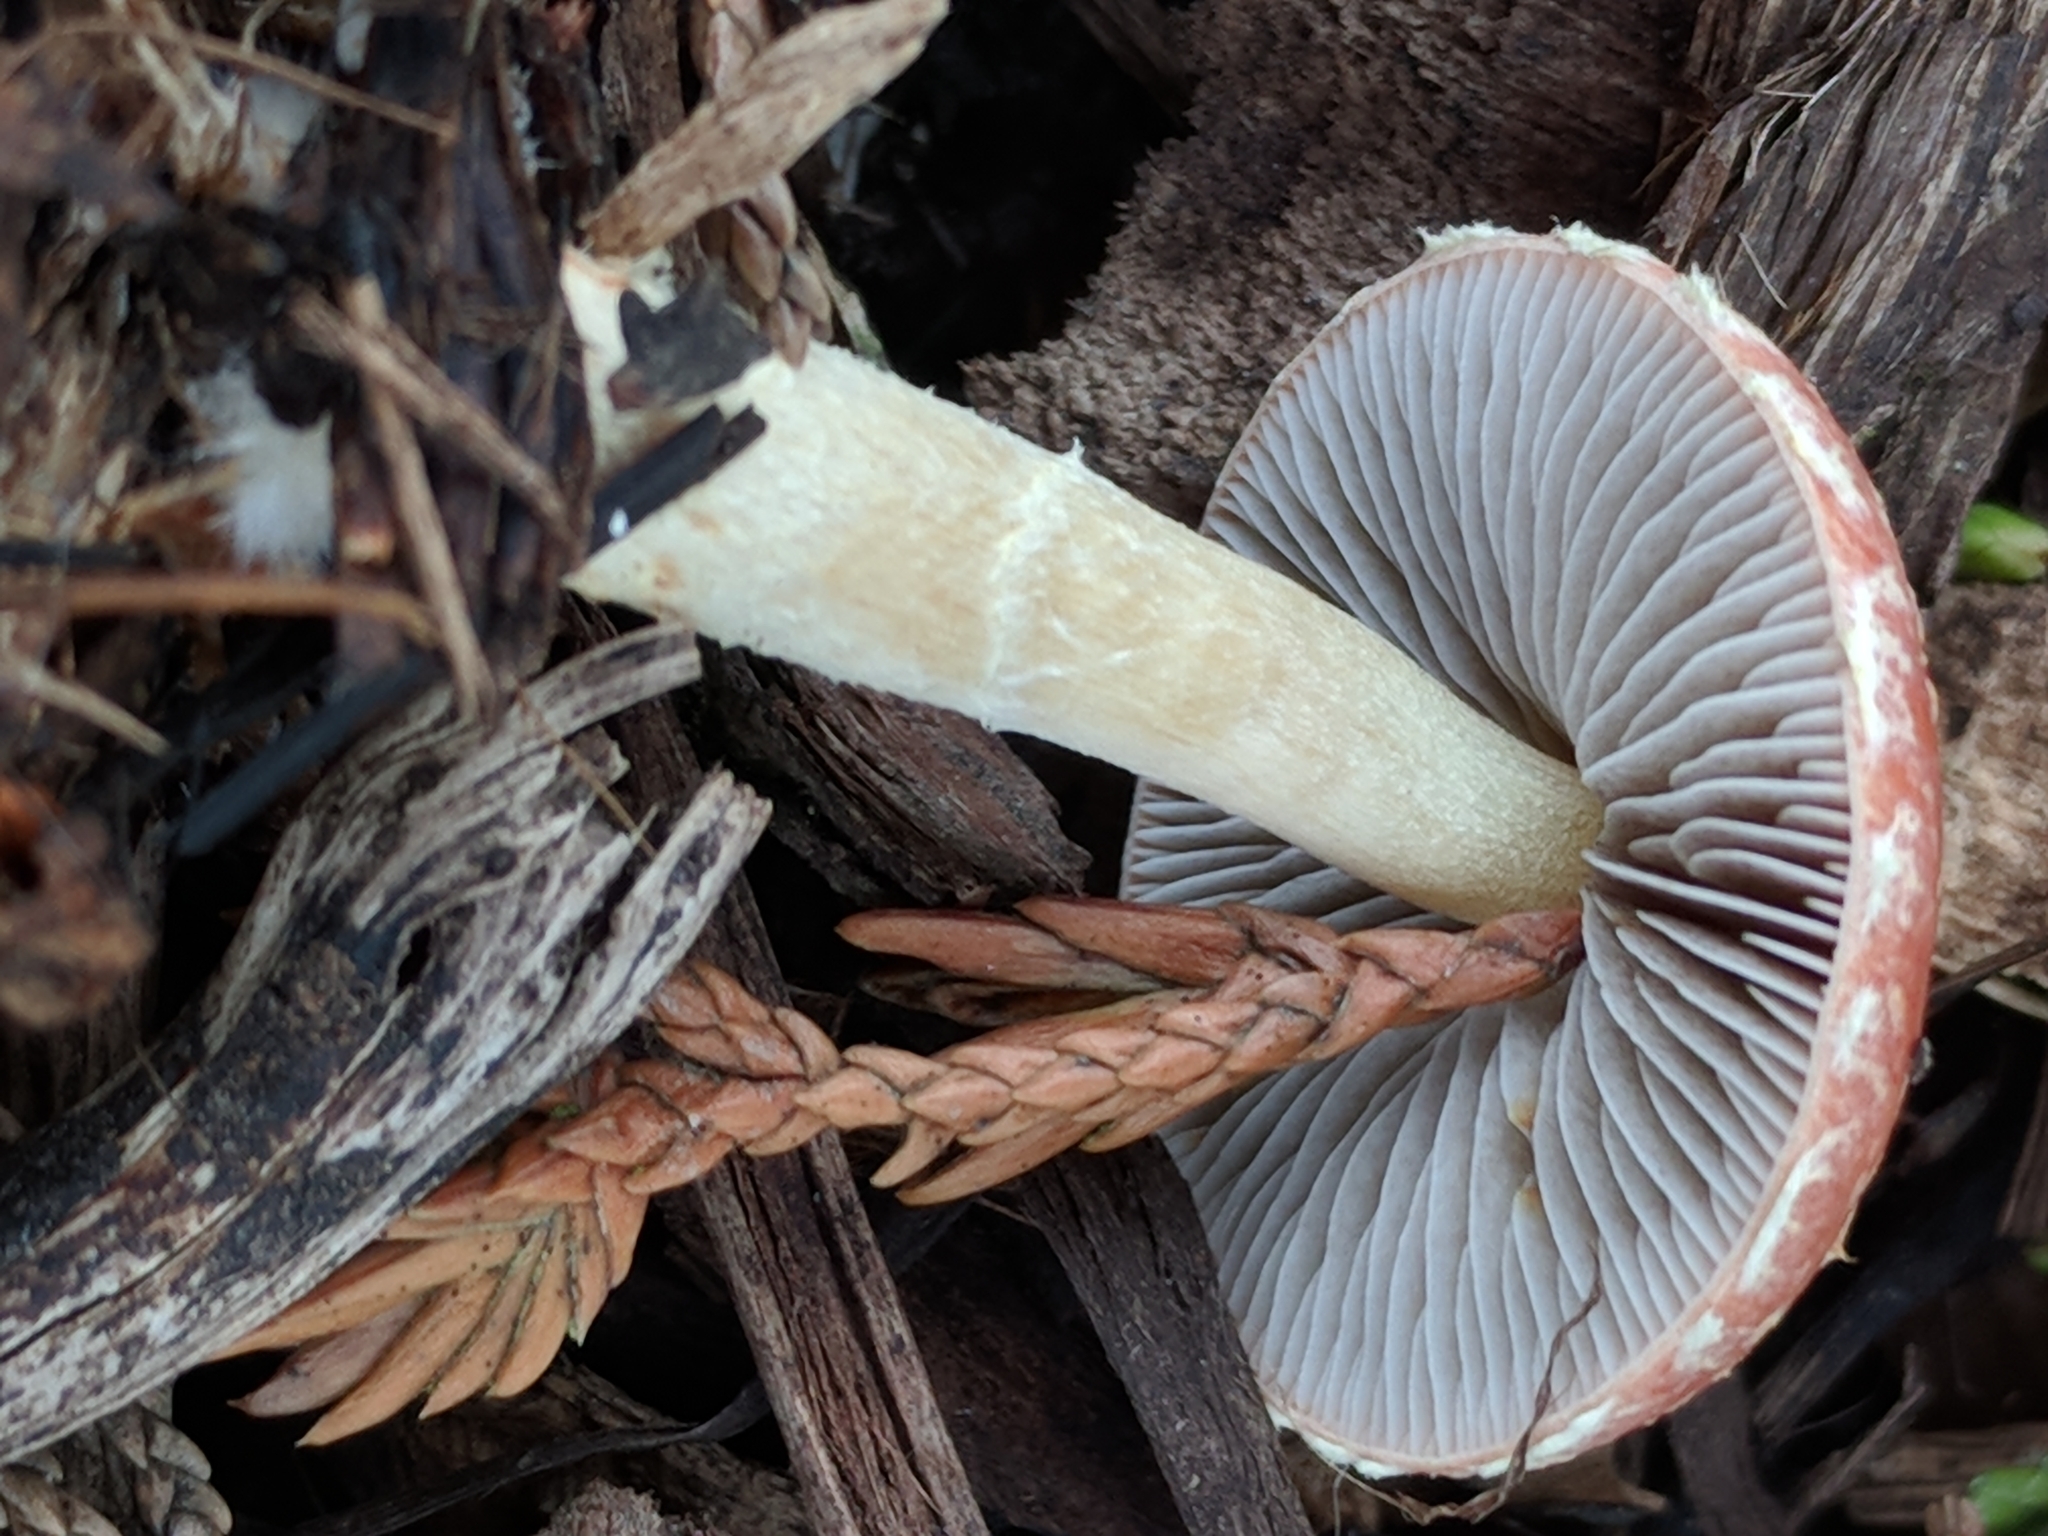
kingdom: Fungi
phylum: Basidiomycota
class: Agaricomycetes
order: Agaricales
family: Strophariaceae
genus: Leratiomyces
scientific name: Leratiomyces ceres
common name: Redlead roundhead
